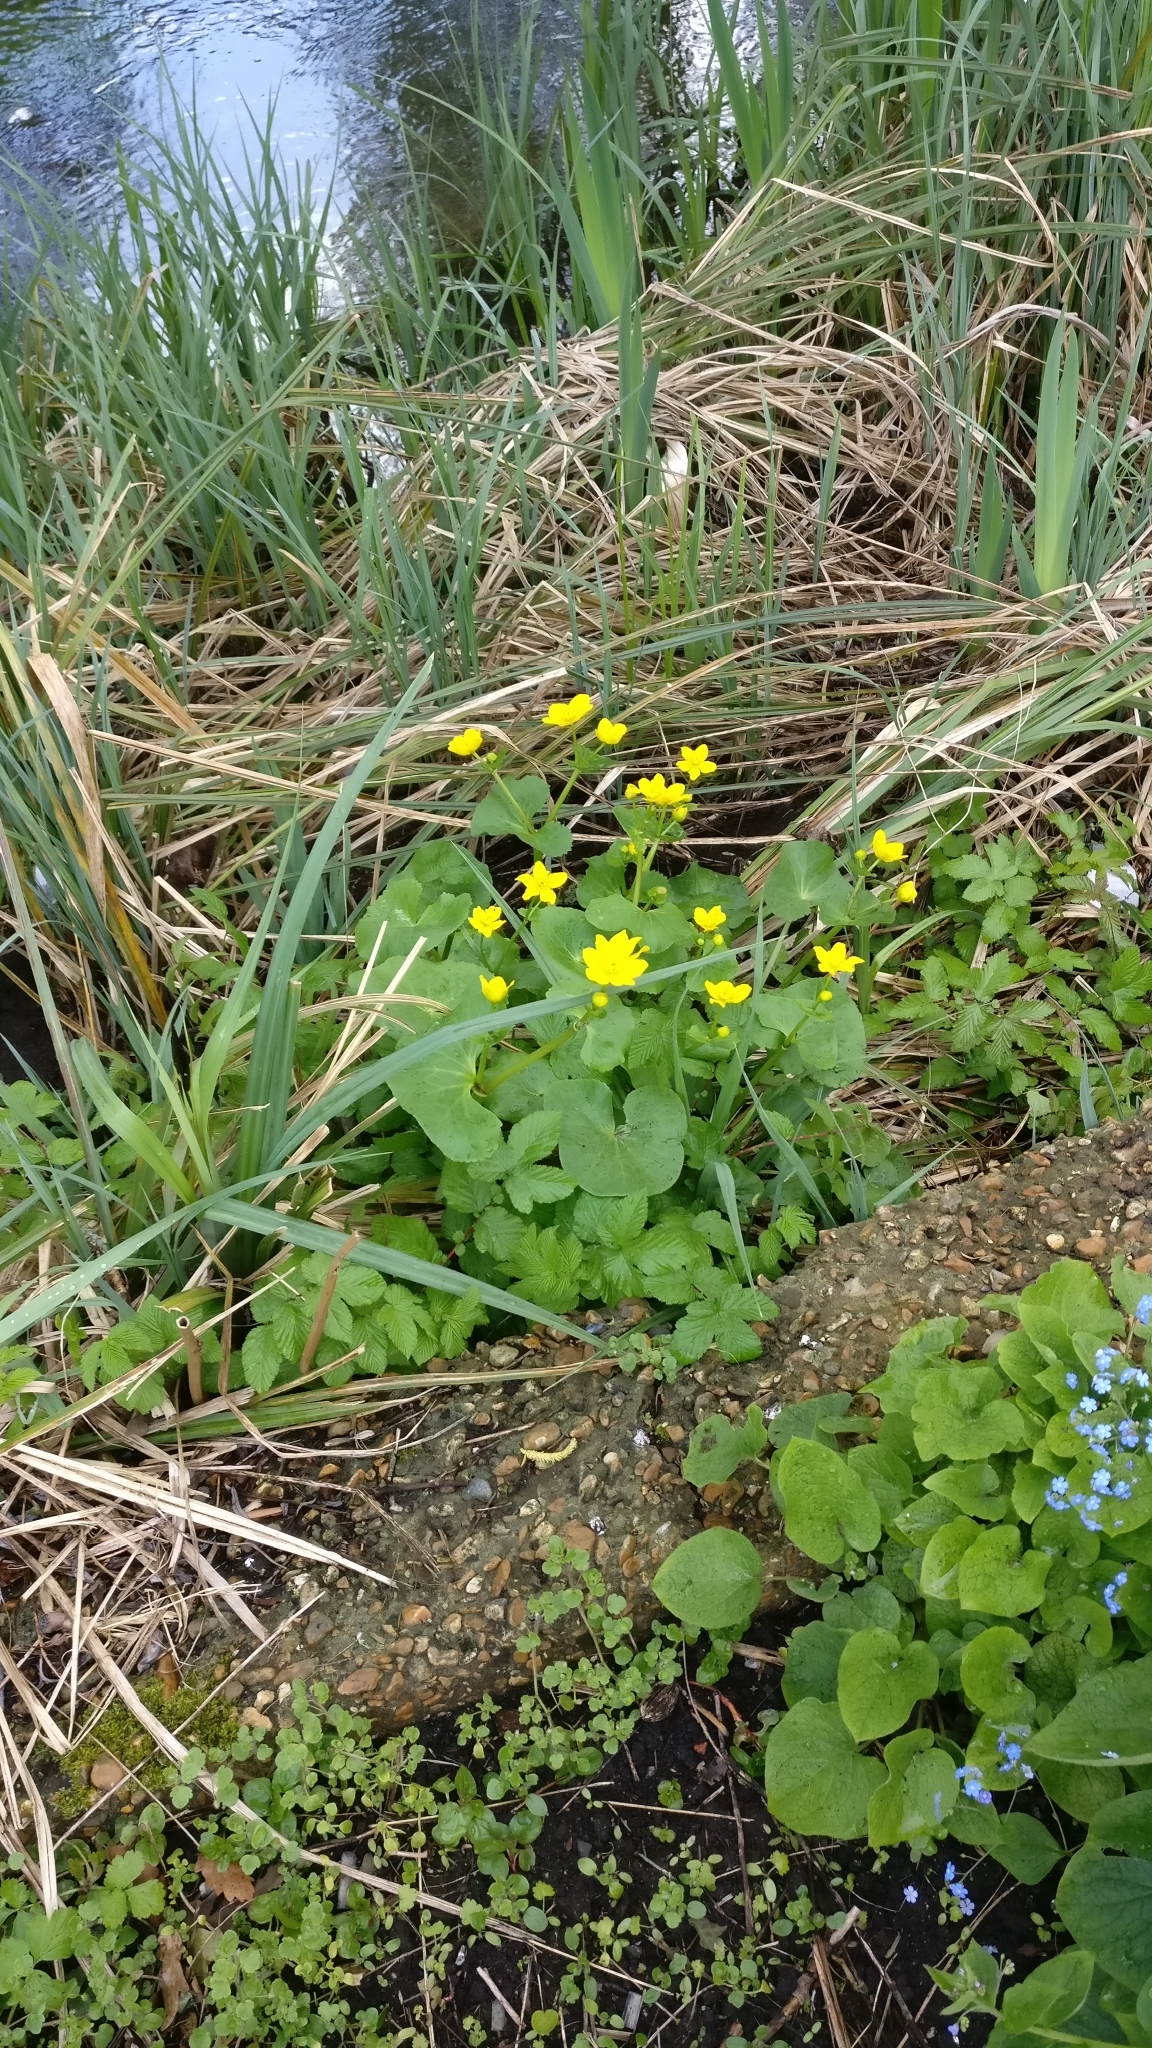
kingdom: Plantae
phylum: Tracheophyta
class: Magnoliopsida
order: Ranunculales
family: Ranunculaceae
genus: Caltha
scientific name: Caltha palustris
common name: Marsh marigold
